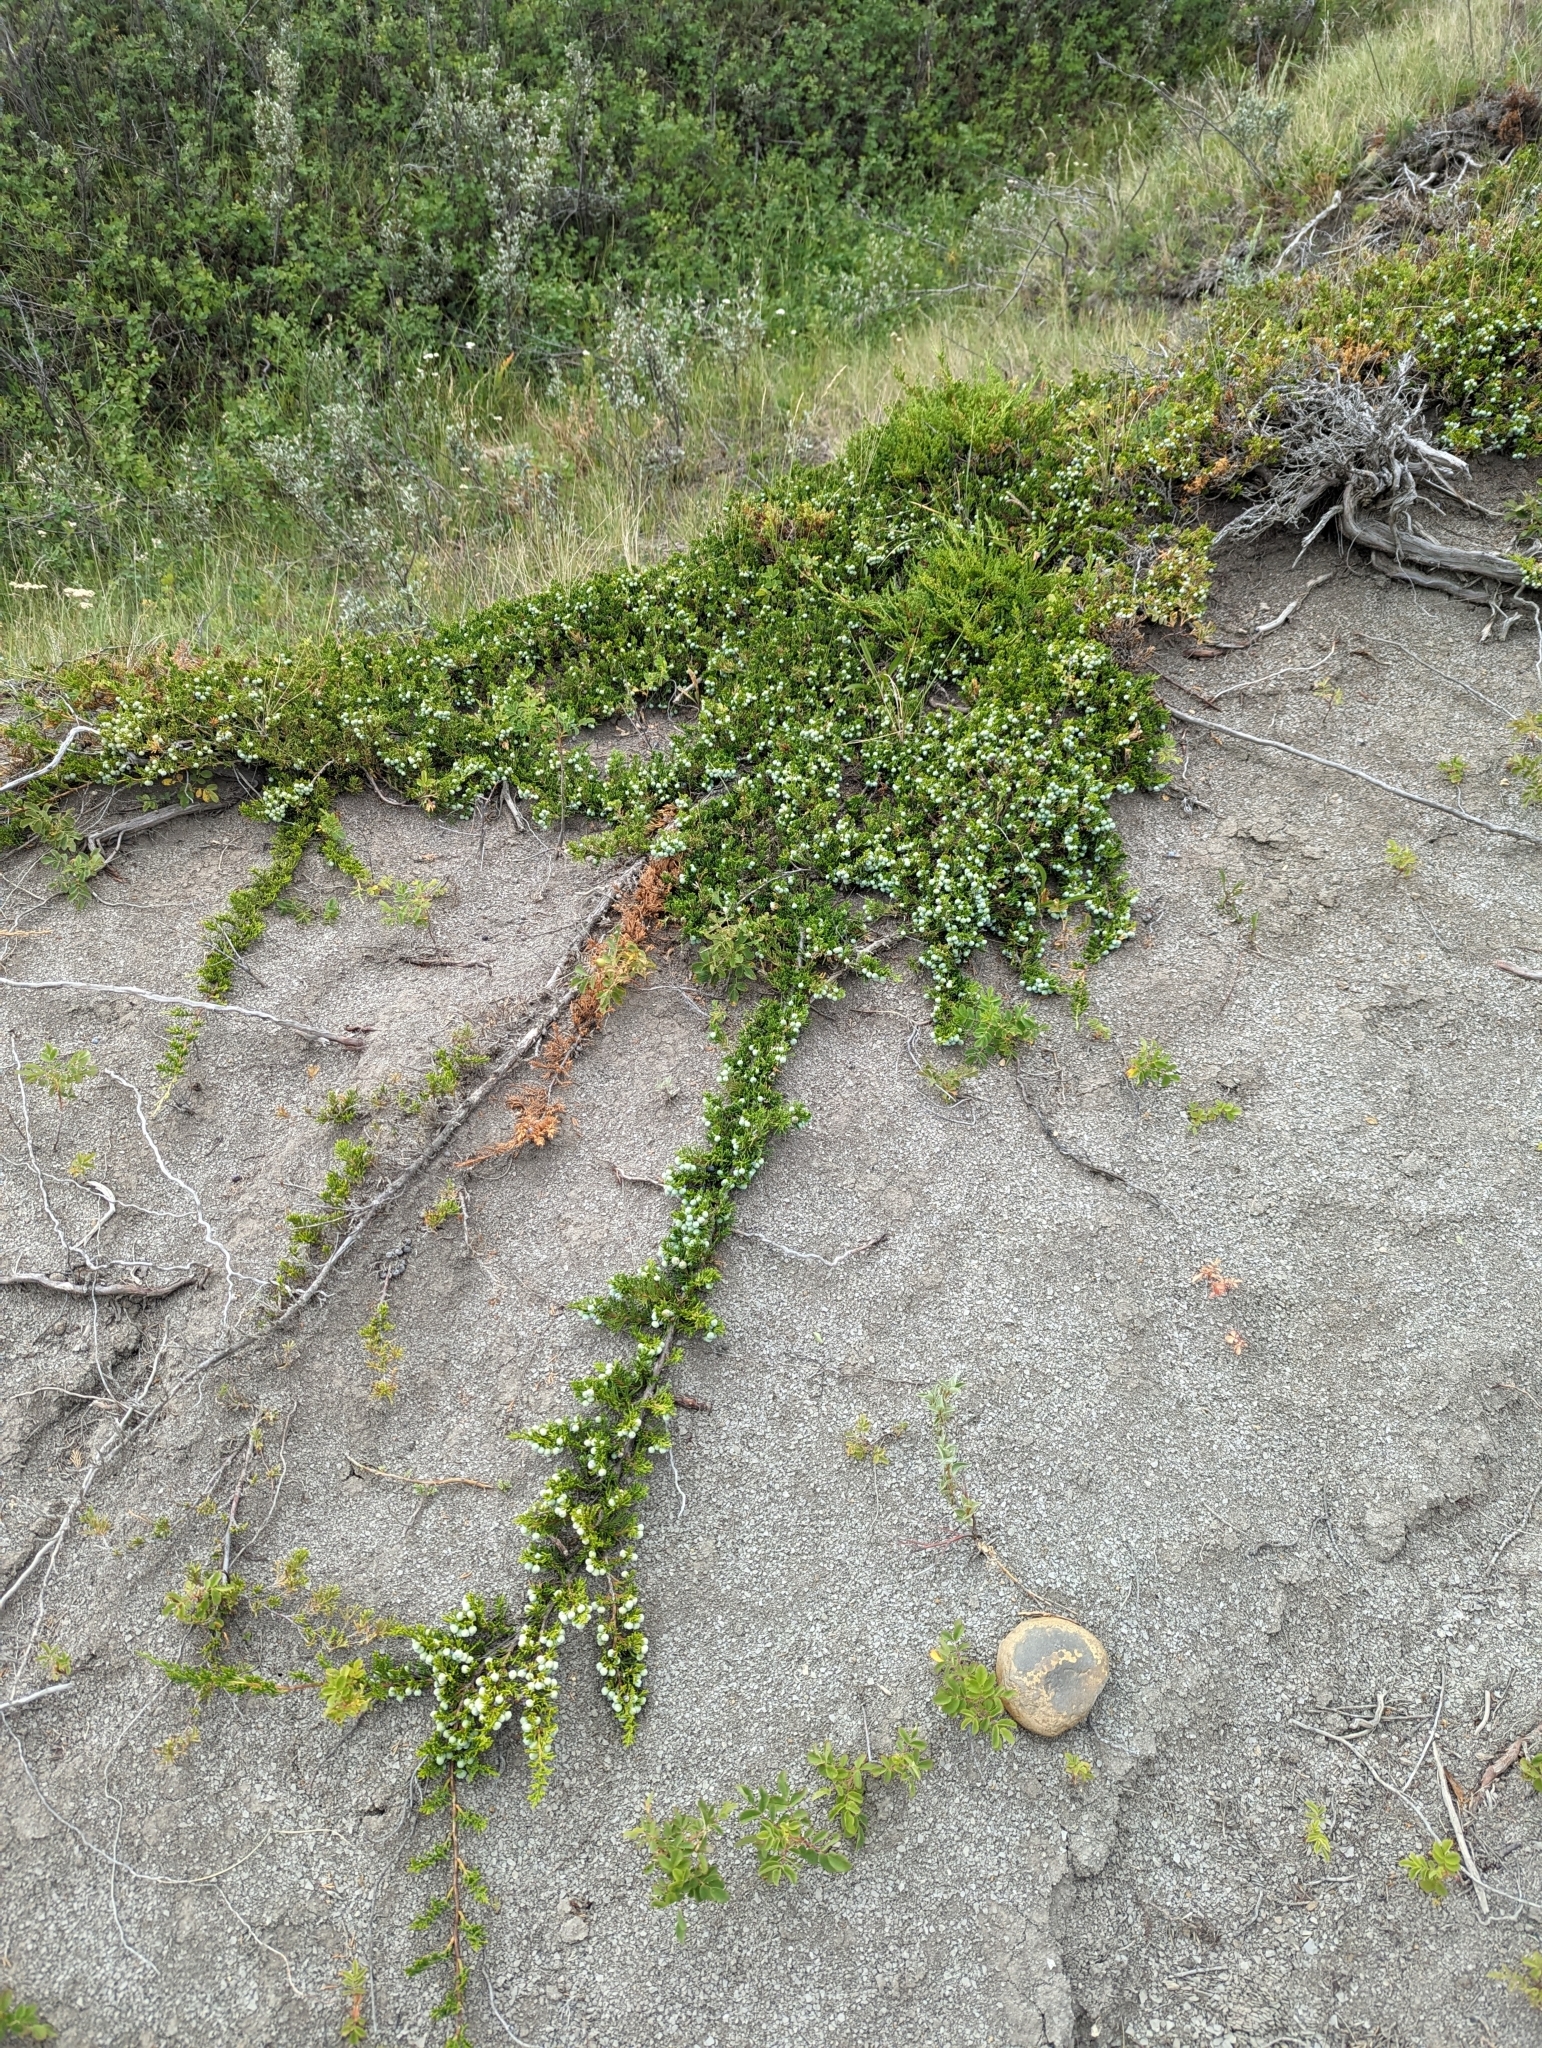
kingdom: Plantae
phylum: Tracheophyta
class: Pinopsida
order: Pinales
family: Cupressaceae
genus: Juniperus
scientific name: Juniperus horizontalis
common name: Creeping juniper
